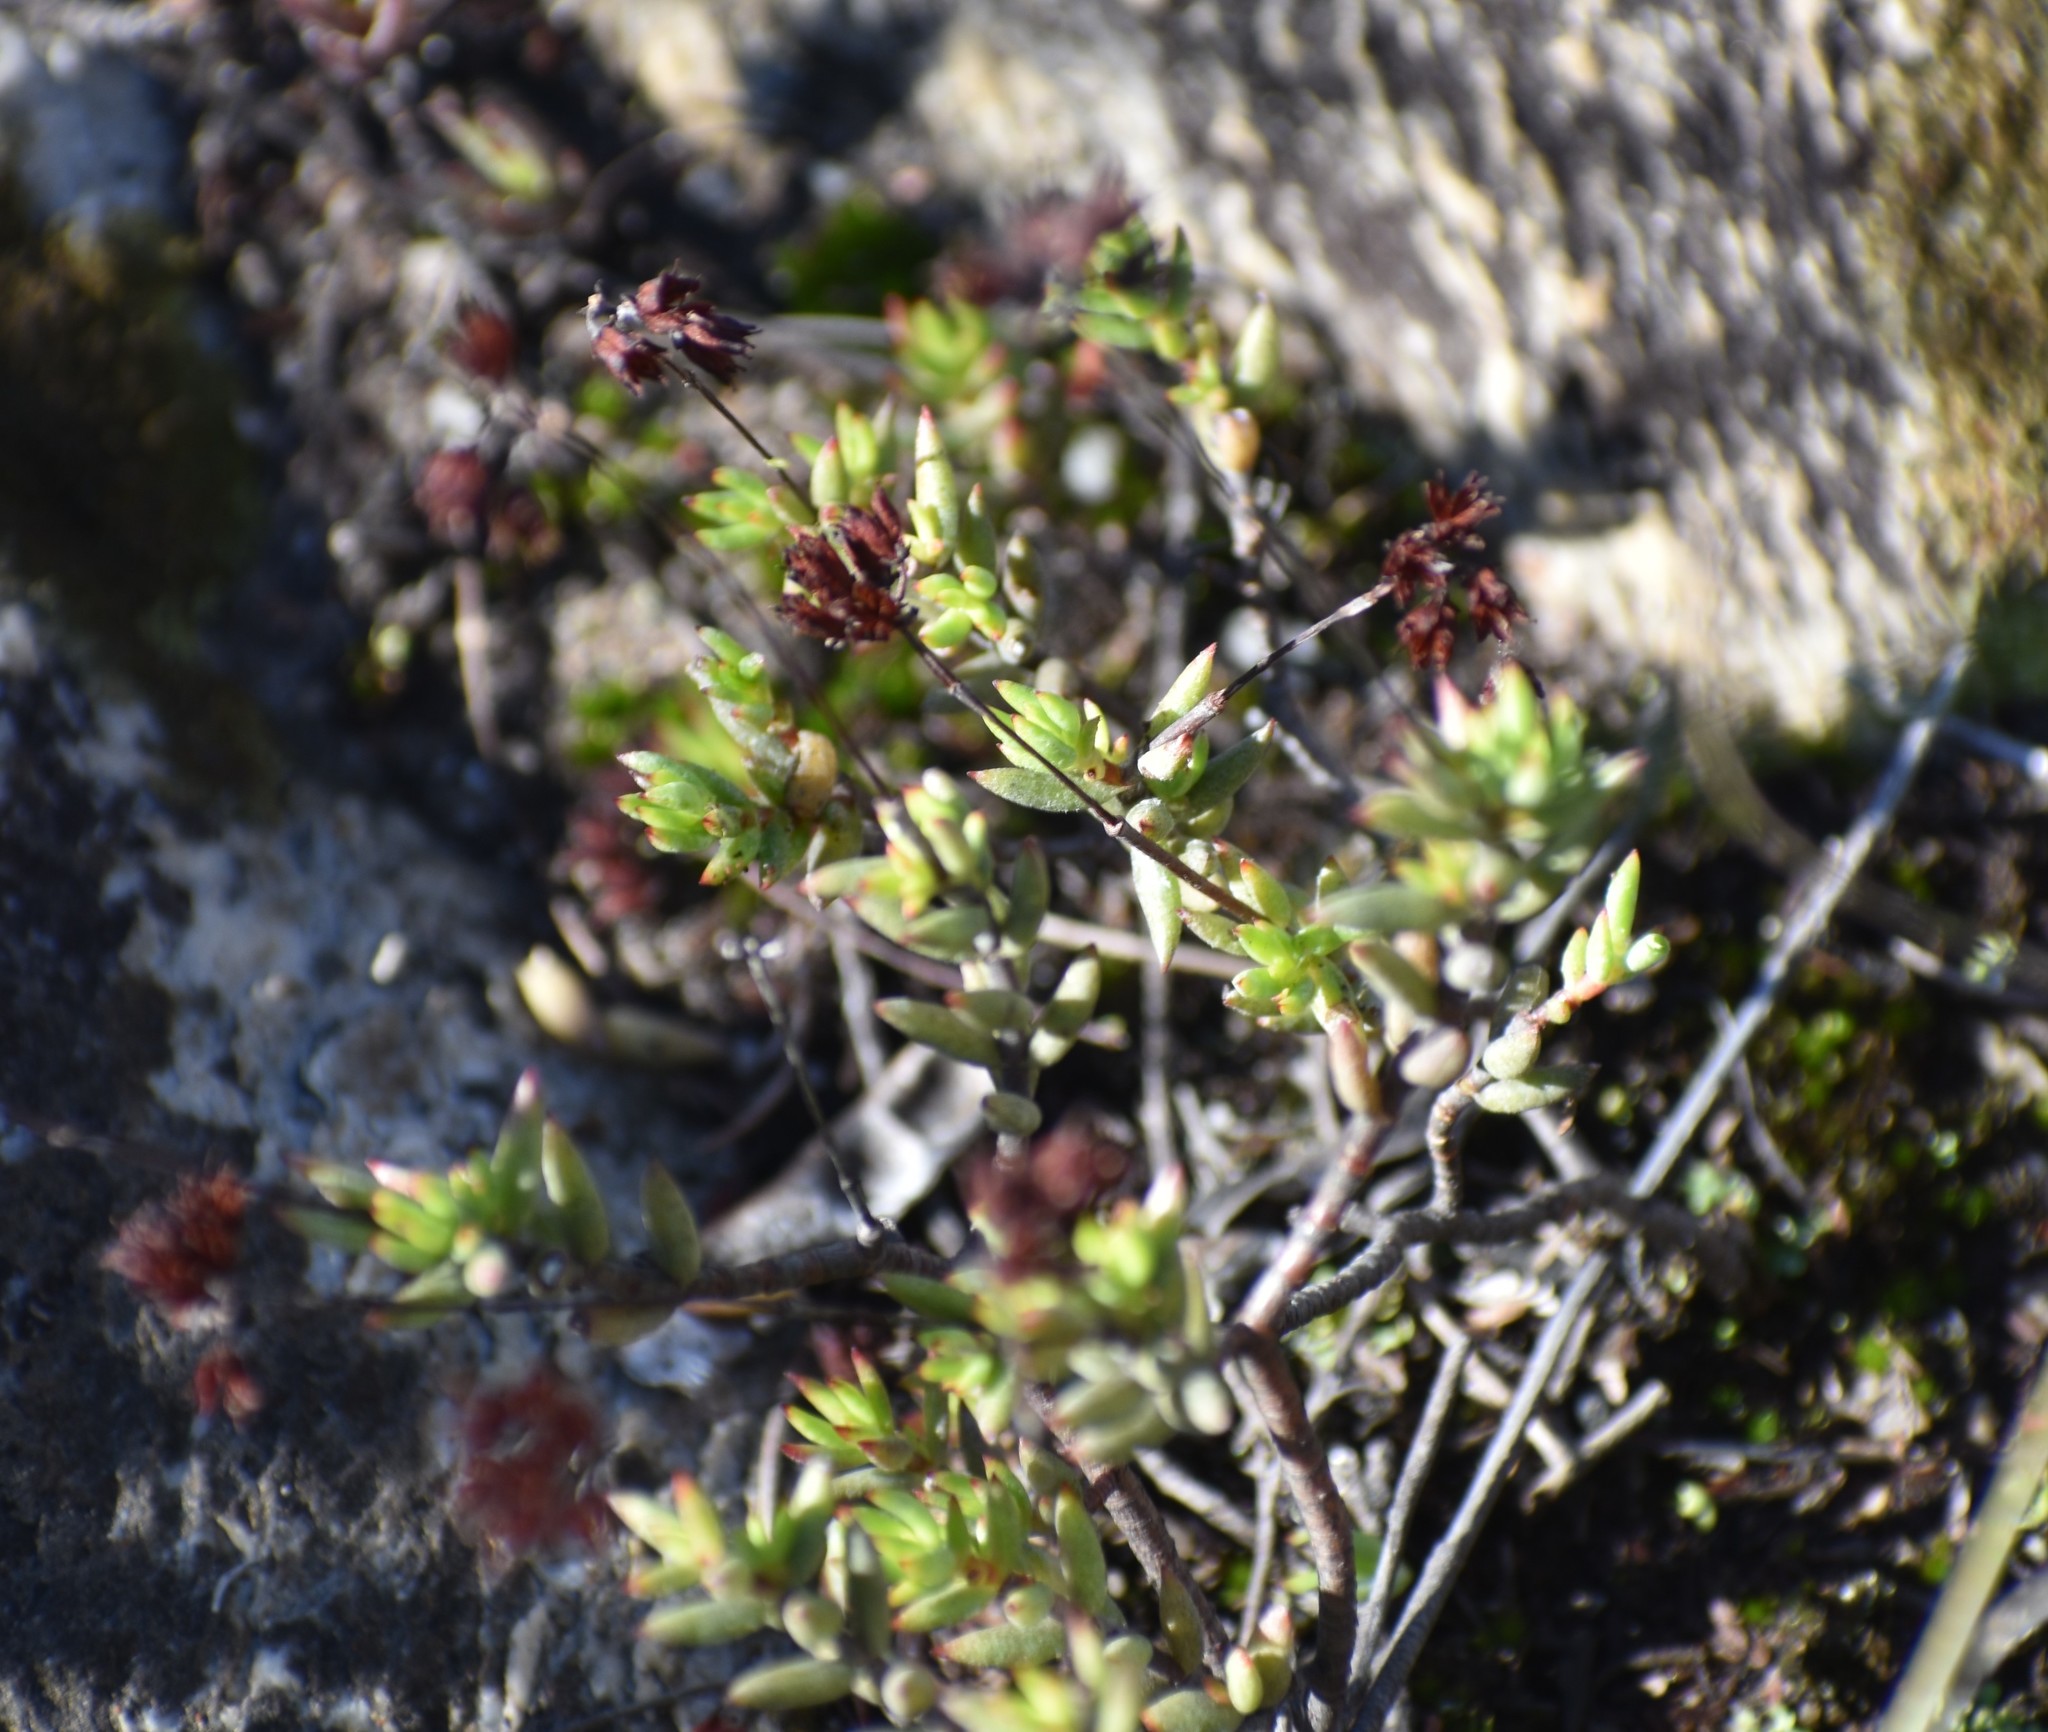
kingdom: Plantae
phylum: Tracheophyta
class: Magnoliopsida
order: Saxifragales
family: Crassulaceae
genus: Crassula
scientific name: Crassula biplanata
